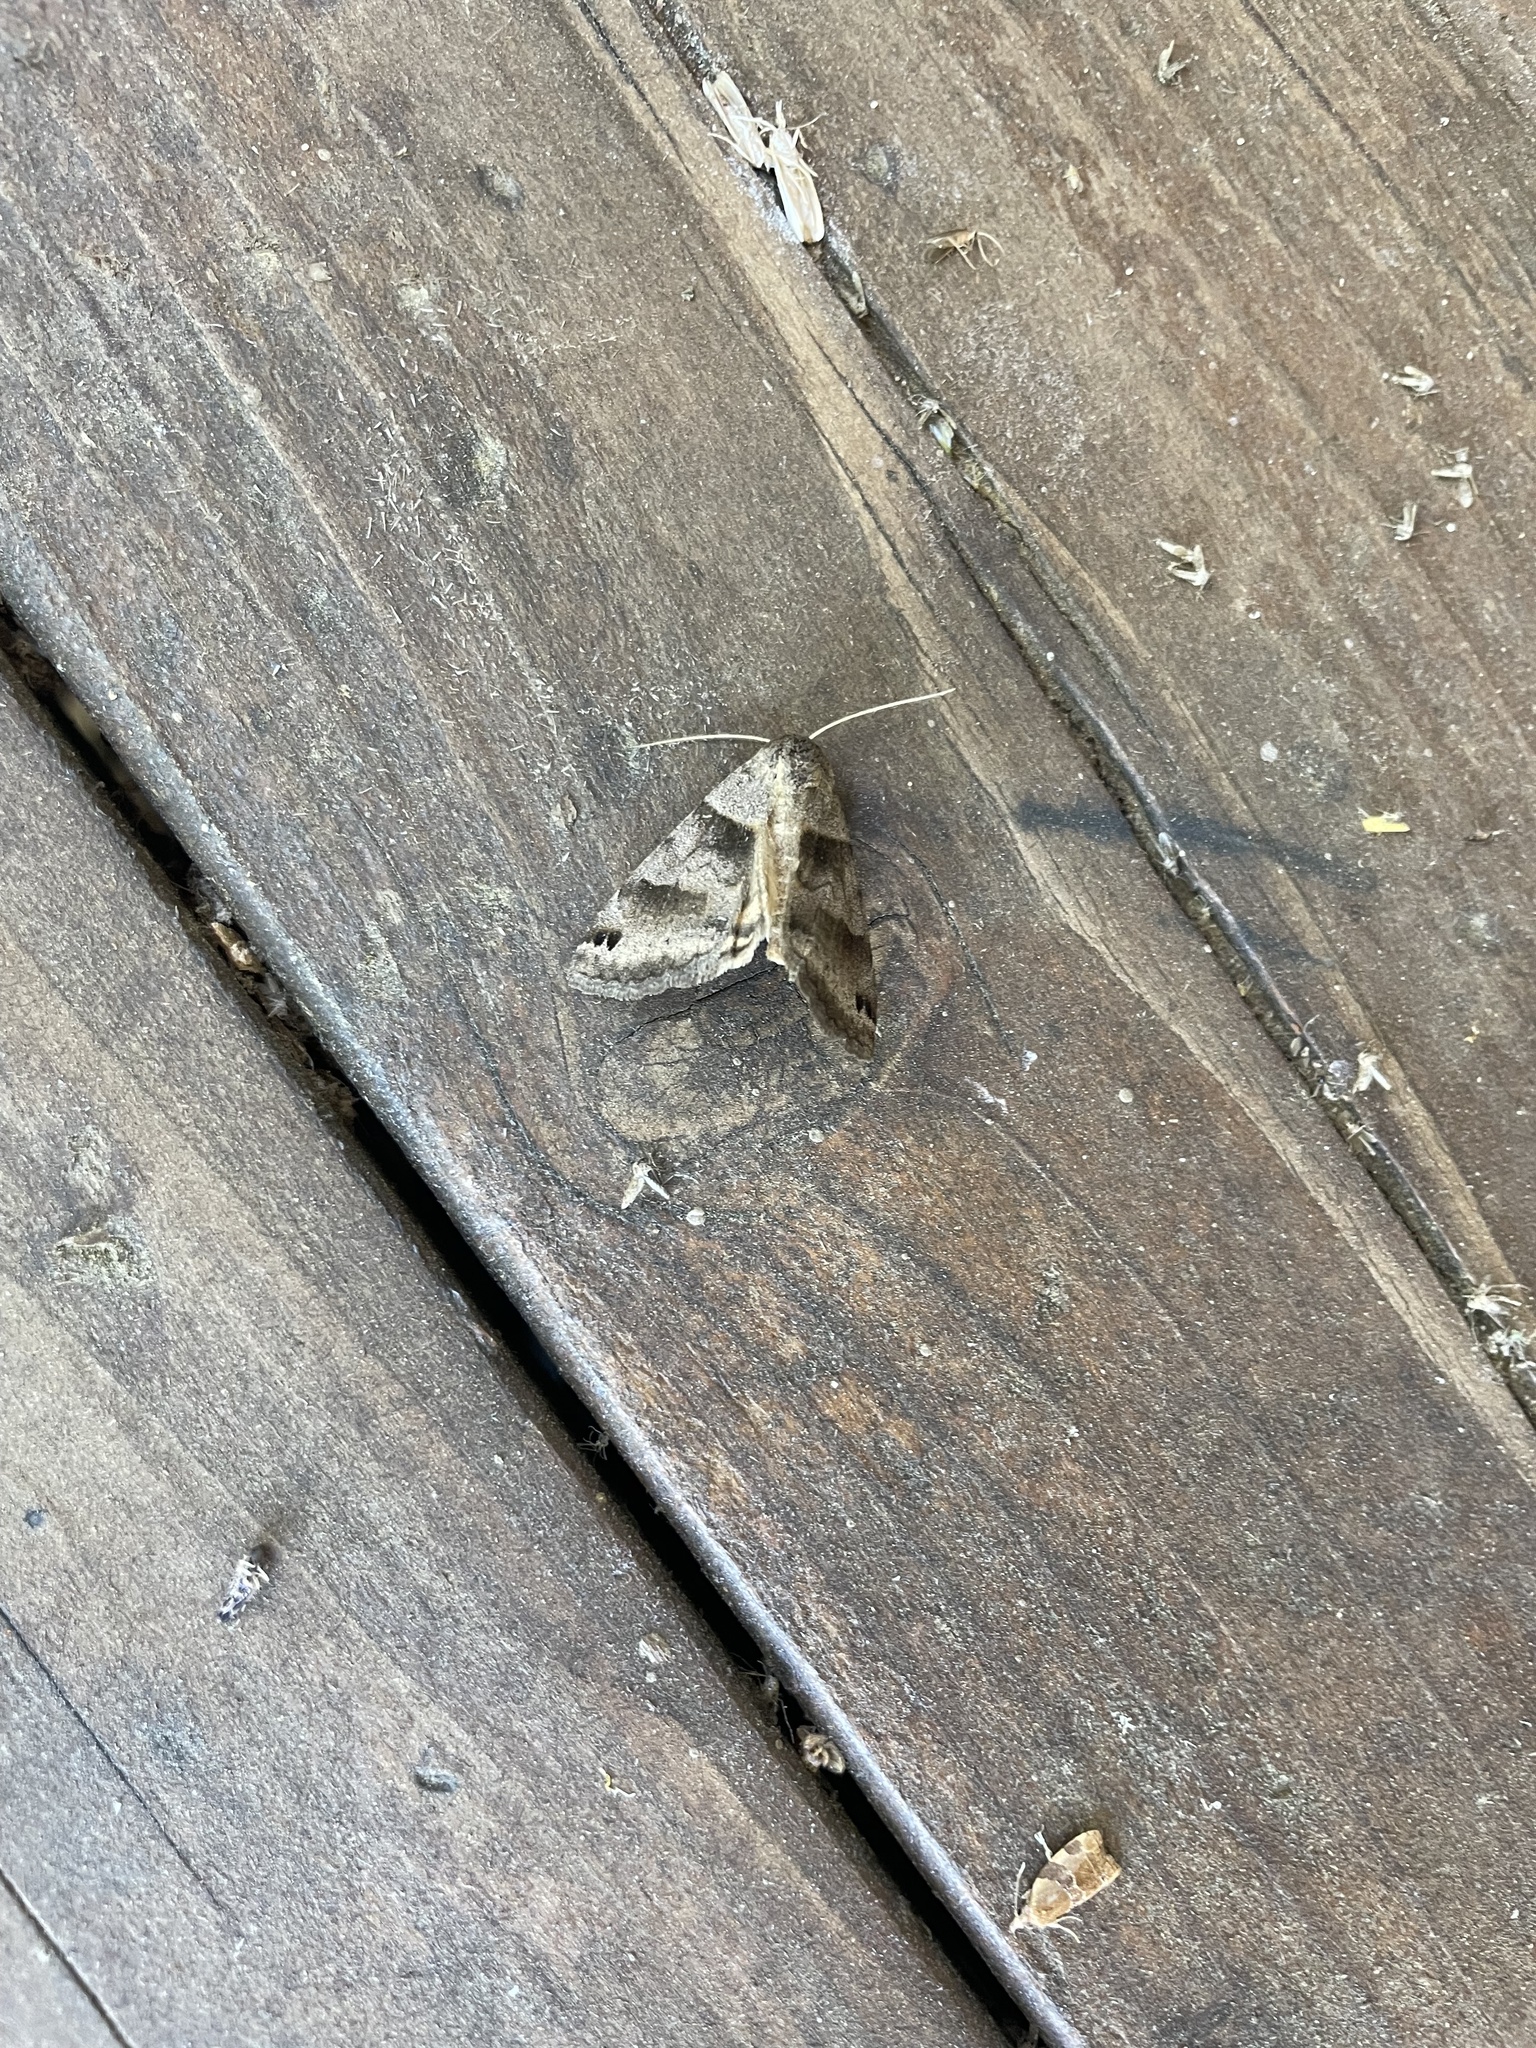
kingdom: Animalia
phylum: Arthropoda
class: Insecta
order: Lepidoptera
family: Erebidae
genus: Caenurgina
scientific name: Caenurgina erechtea
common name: Forage looper moth
